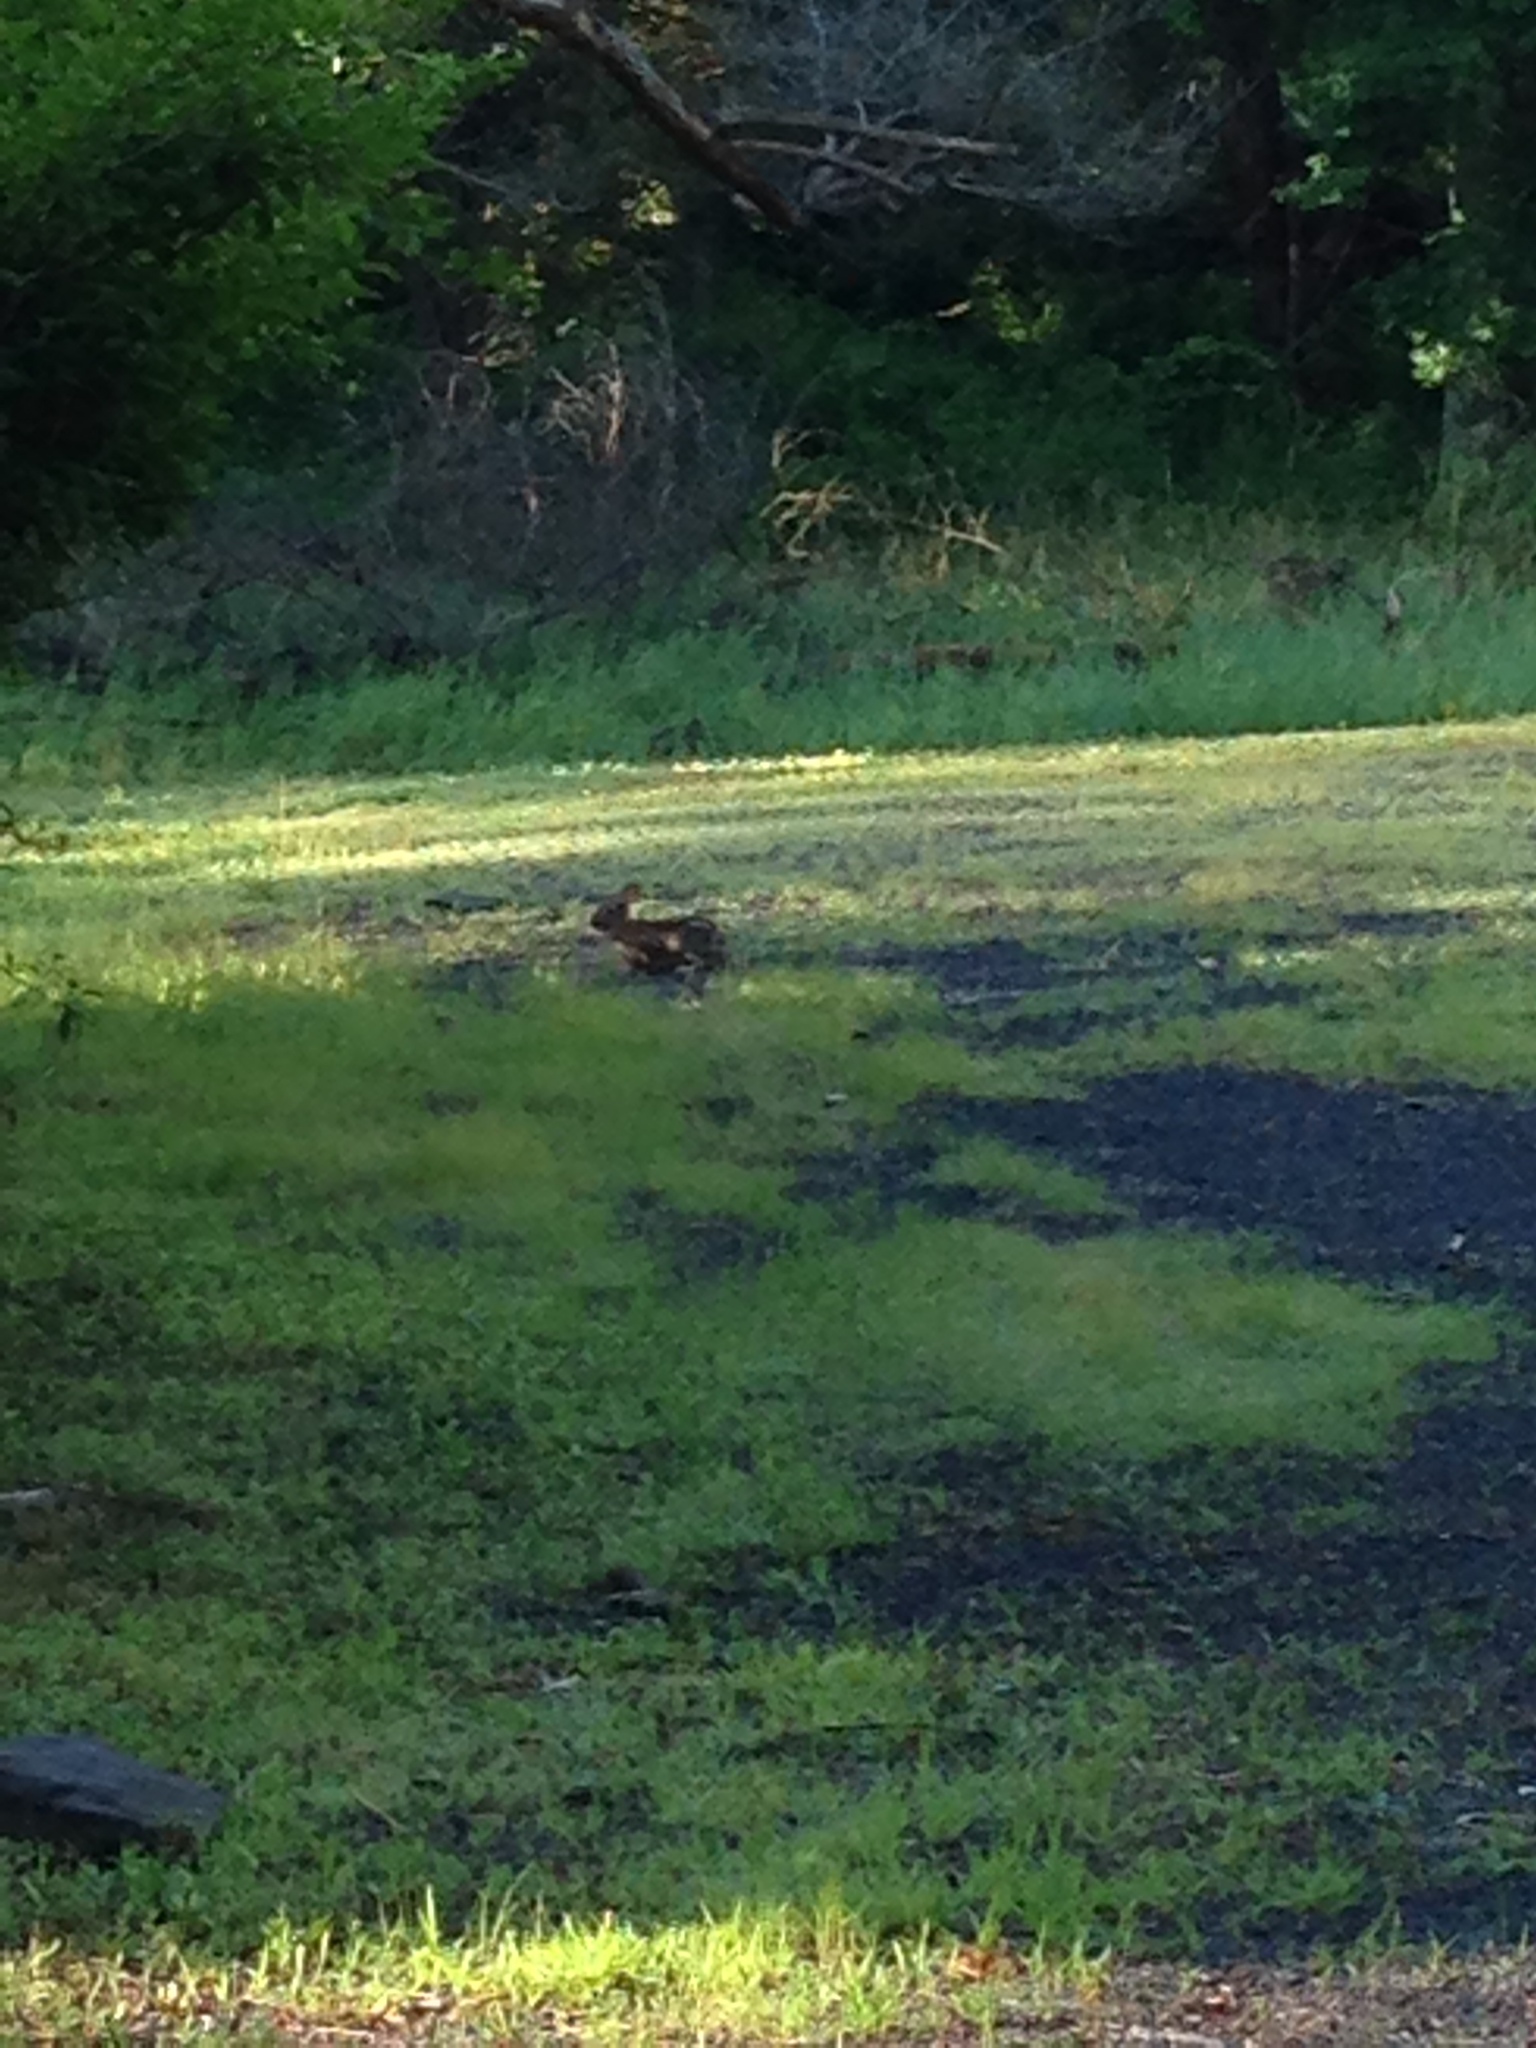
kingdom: Animalia
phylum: Chordata
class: Mammalia
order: Lagomorpha
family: Leporidae
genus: Sylvilagus
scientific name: Sylvilagus floridanus
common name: Eastern cottontail
